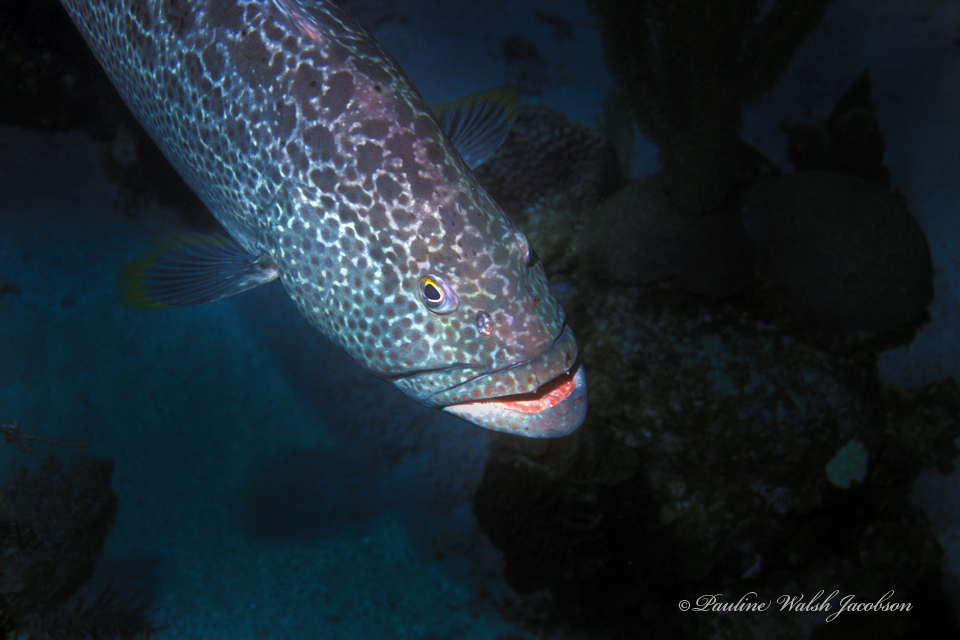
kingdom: Animalia
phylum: Chordata
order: Perciformes
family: Serranidae
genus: Mycteroperca
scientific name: Mycteroperca venenosa
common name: Yellowfin grouper
